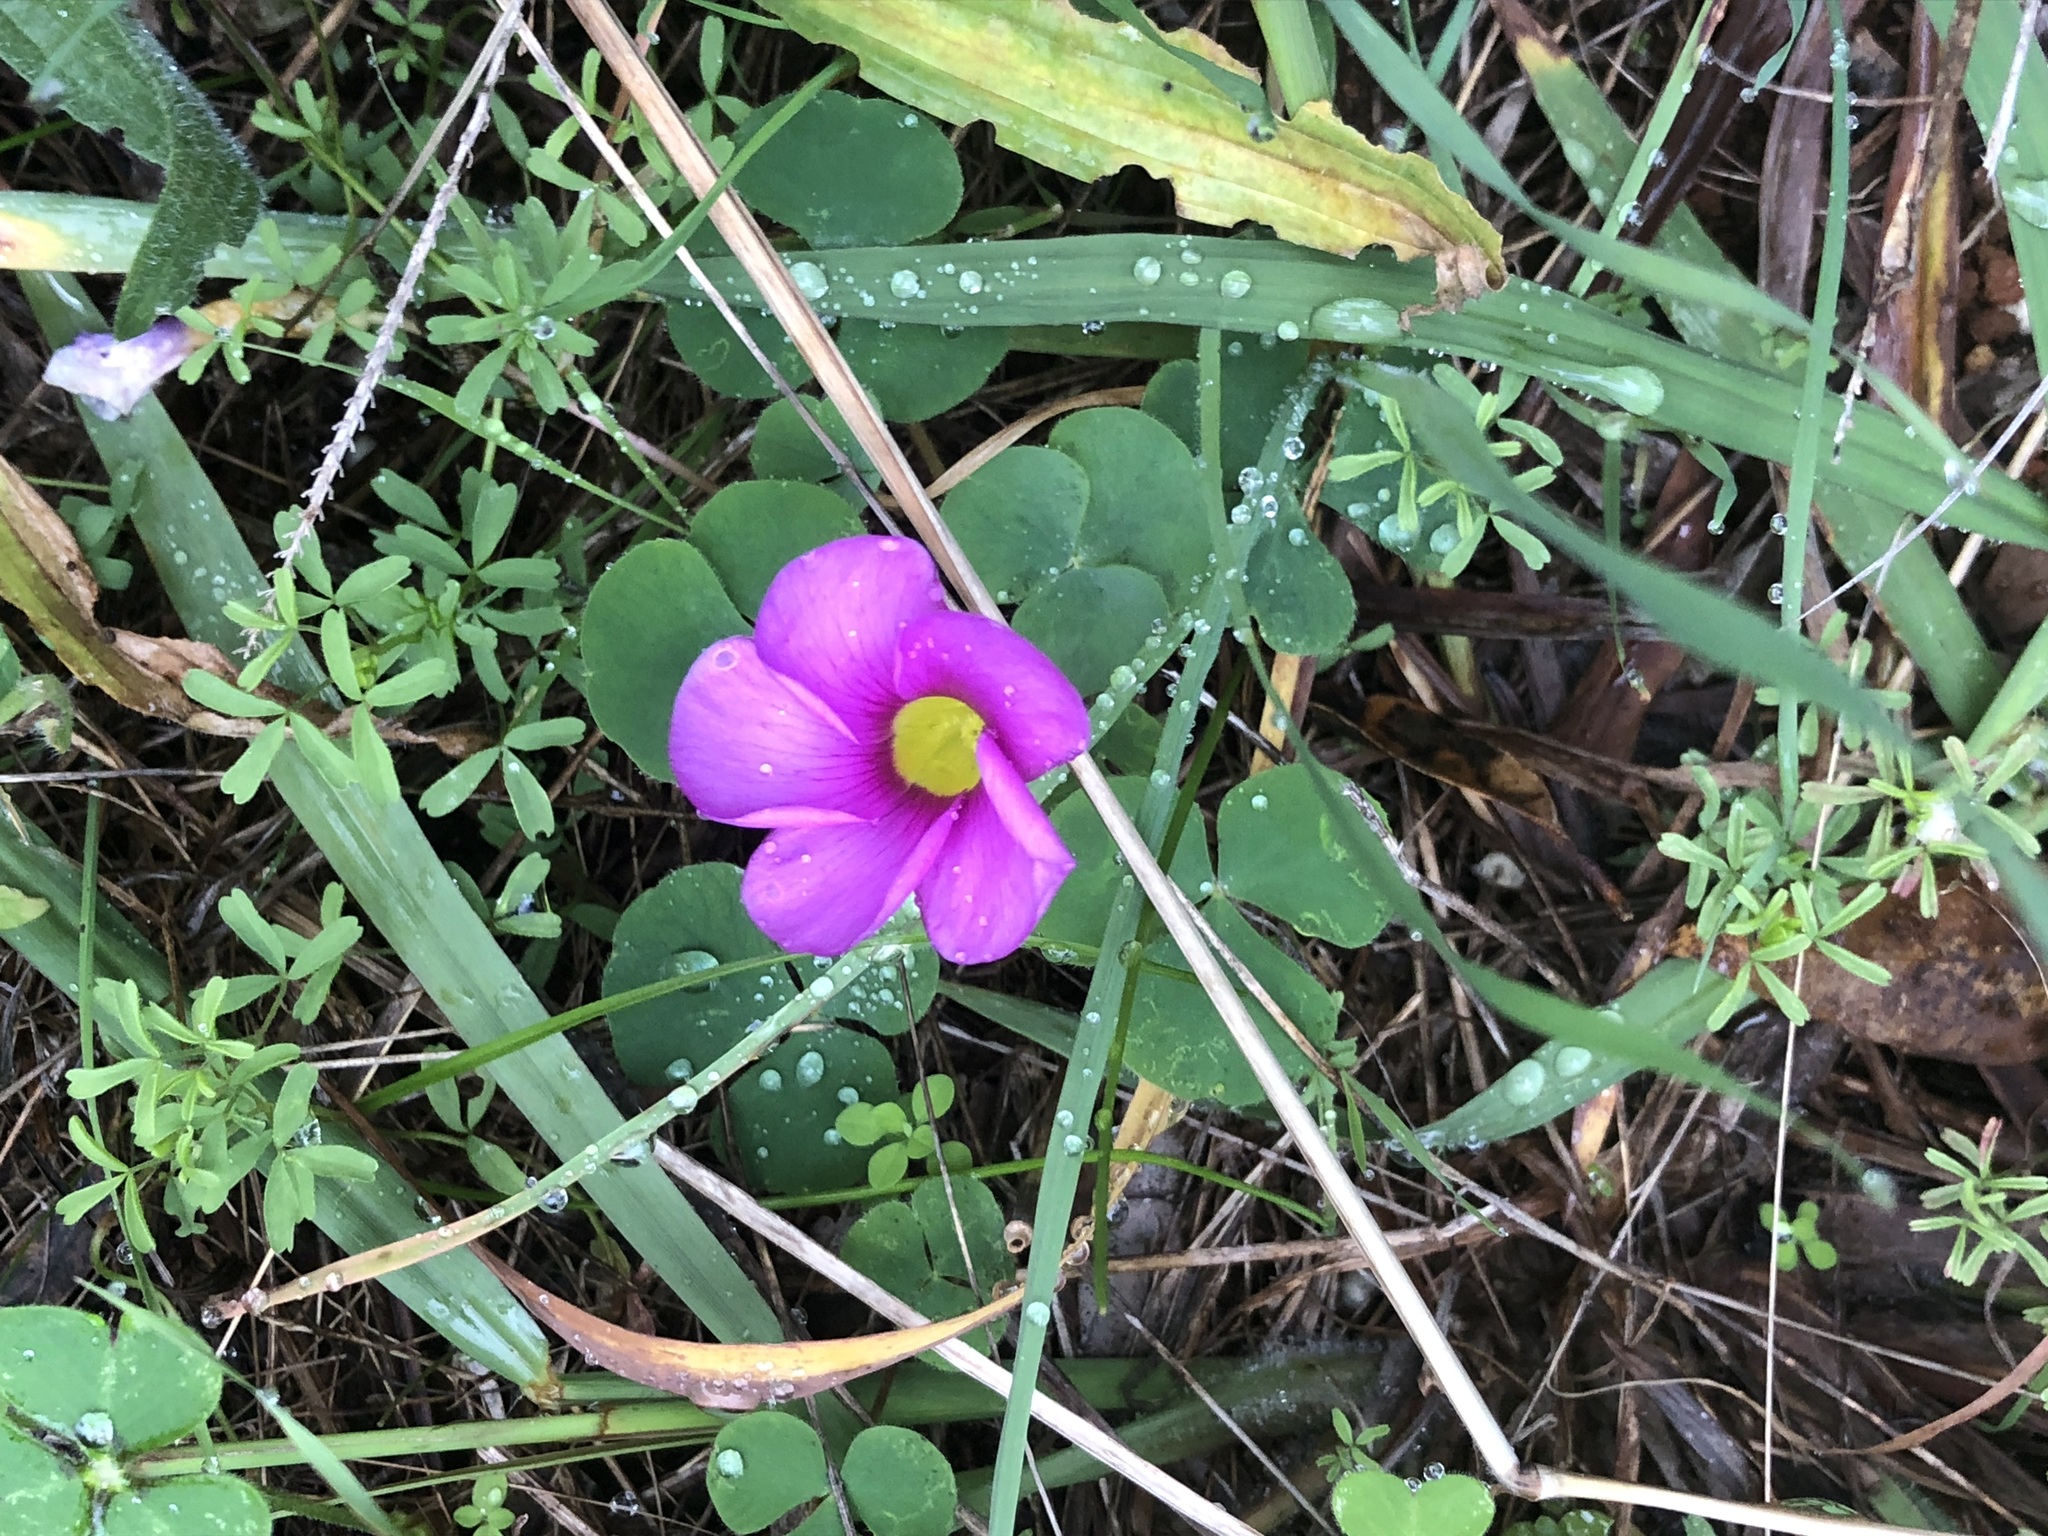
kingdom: Plantae
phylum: Tracheophyta
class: Magnoliopsida
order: Oxalidales
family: Oxalidaceae
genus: Oxalis
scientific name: Oxalis purpurea
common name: Purple woodsorrel
